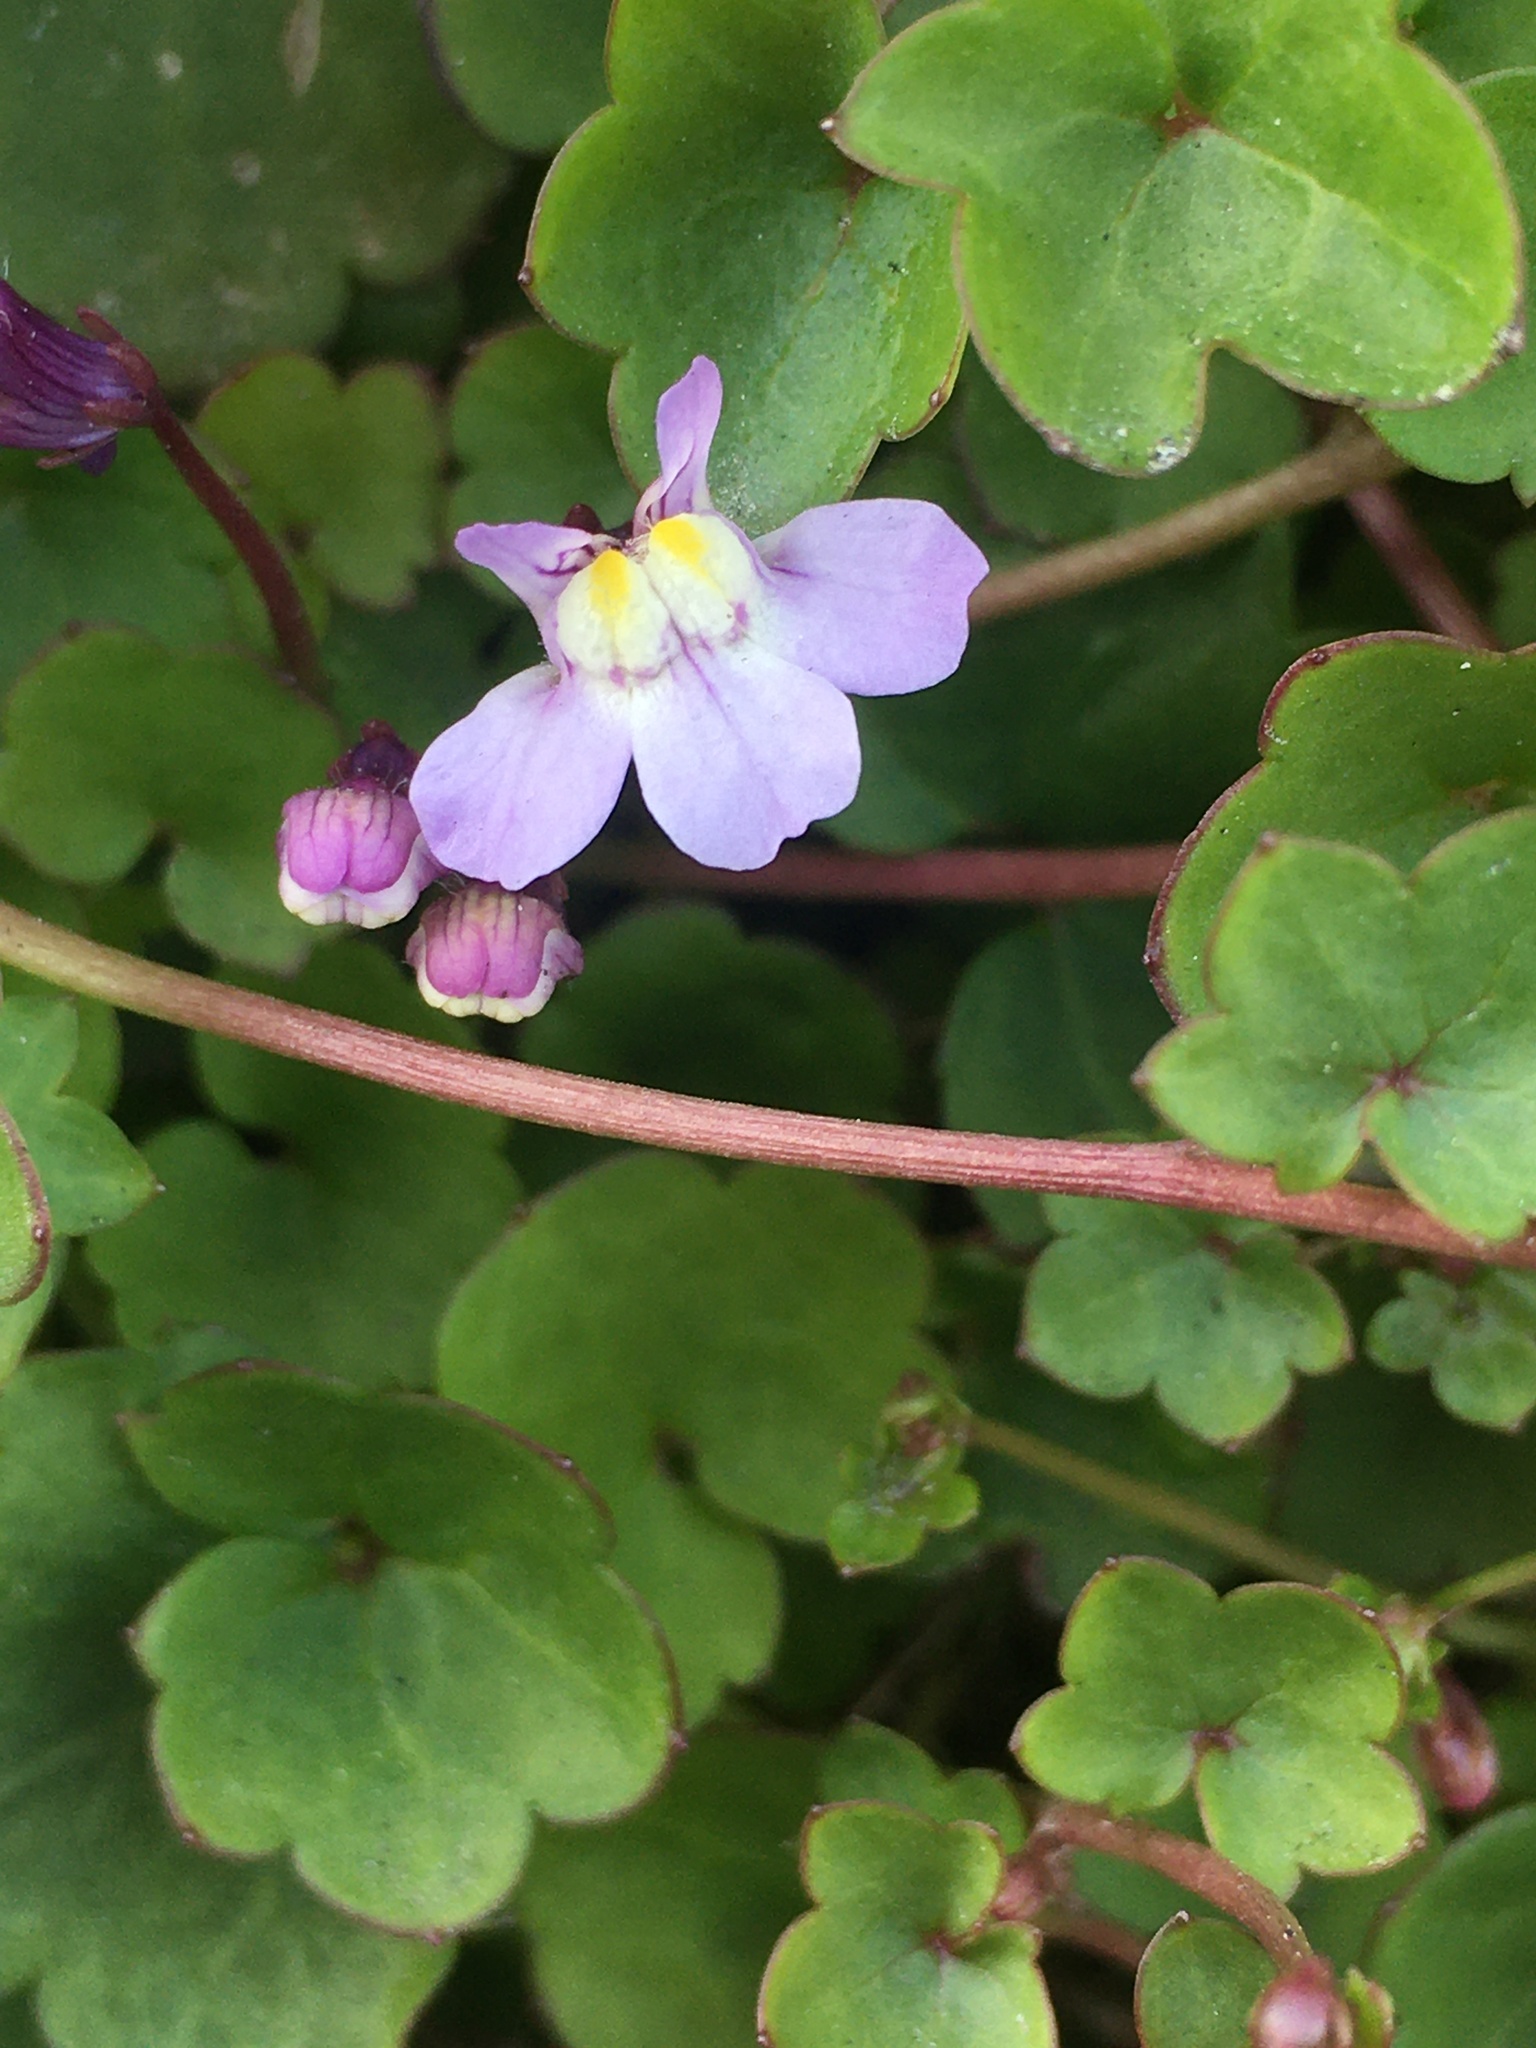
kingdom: Plantae
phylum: Tracheophyta
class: Magnoliopsida
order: Lamiales
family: Plantaginaceae
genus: Cymbalaria
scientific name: Cymbalaria muralis
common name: Ivy-leaved toadflax
